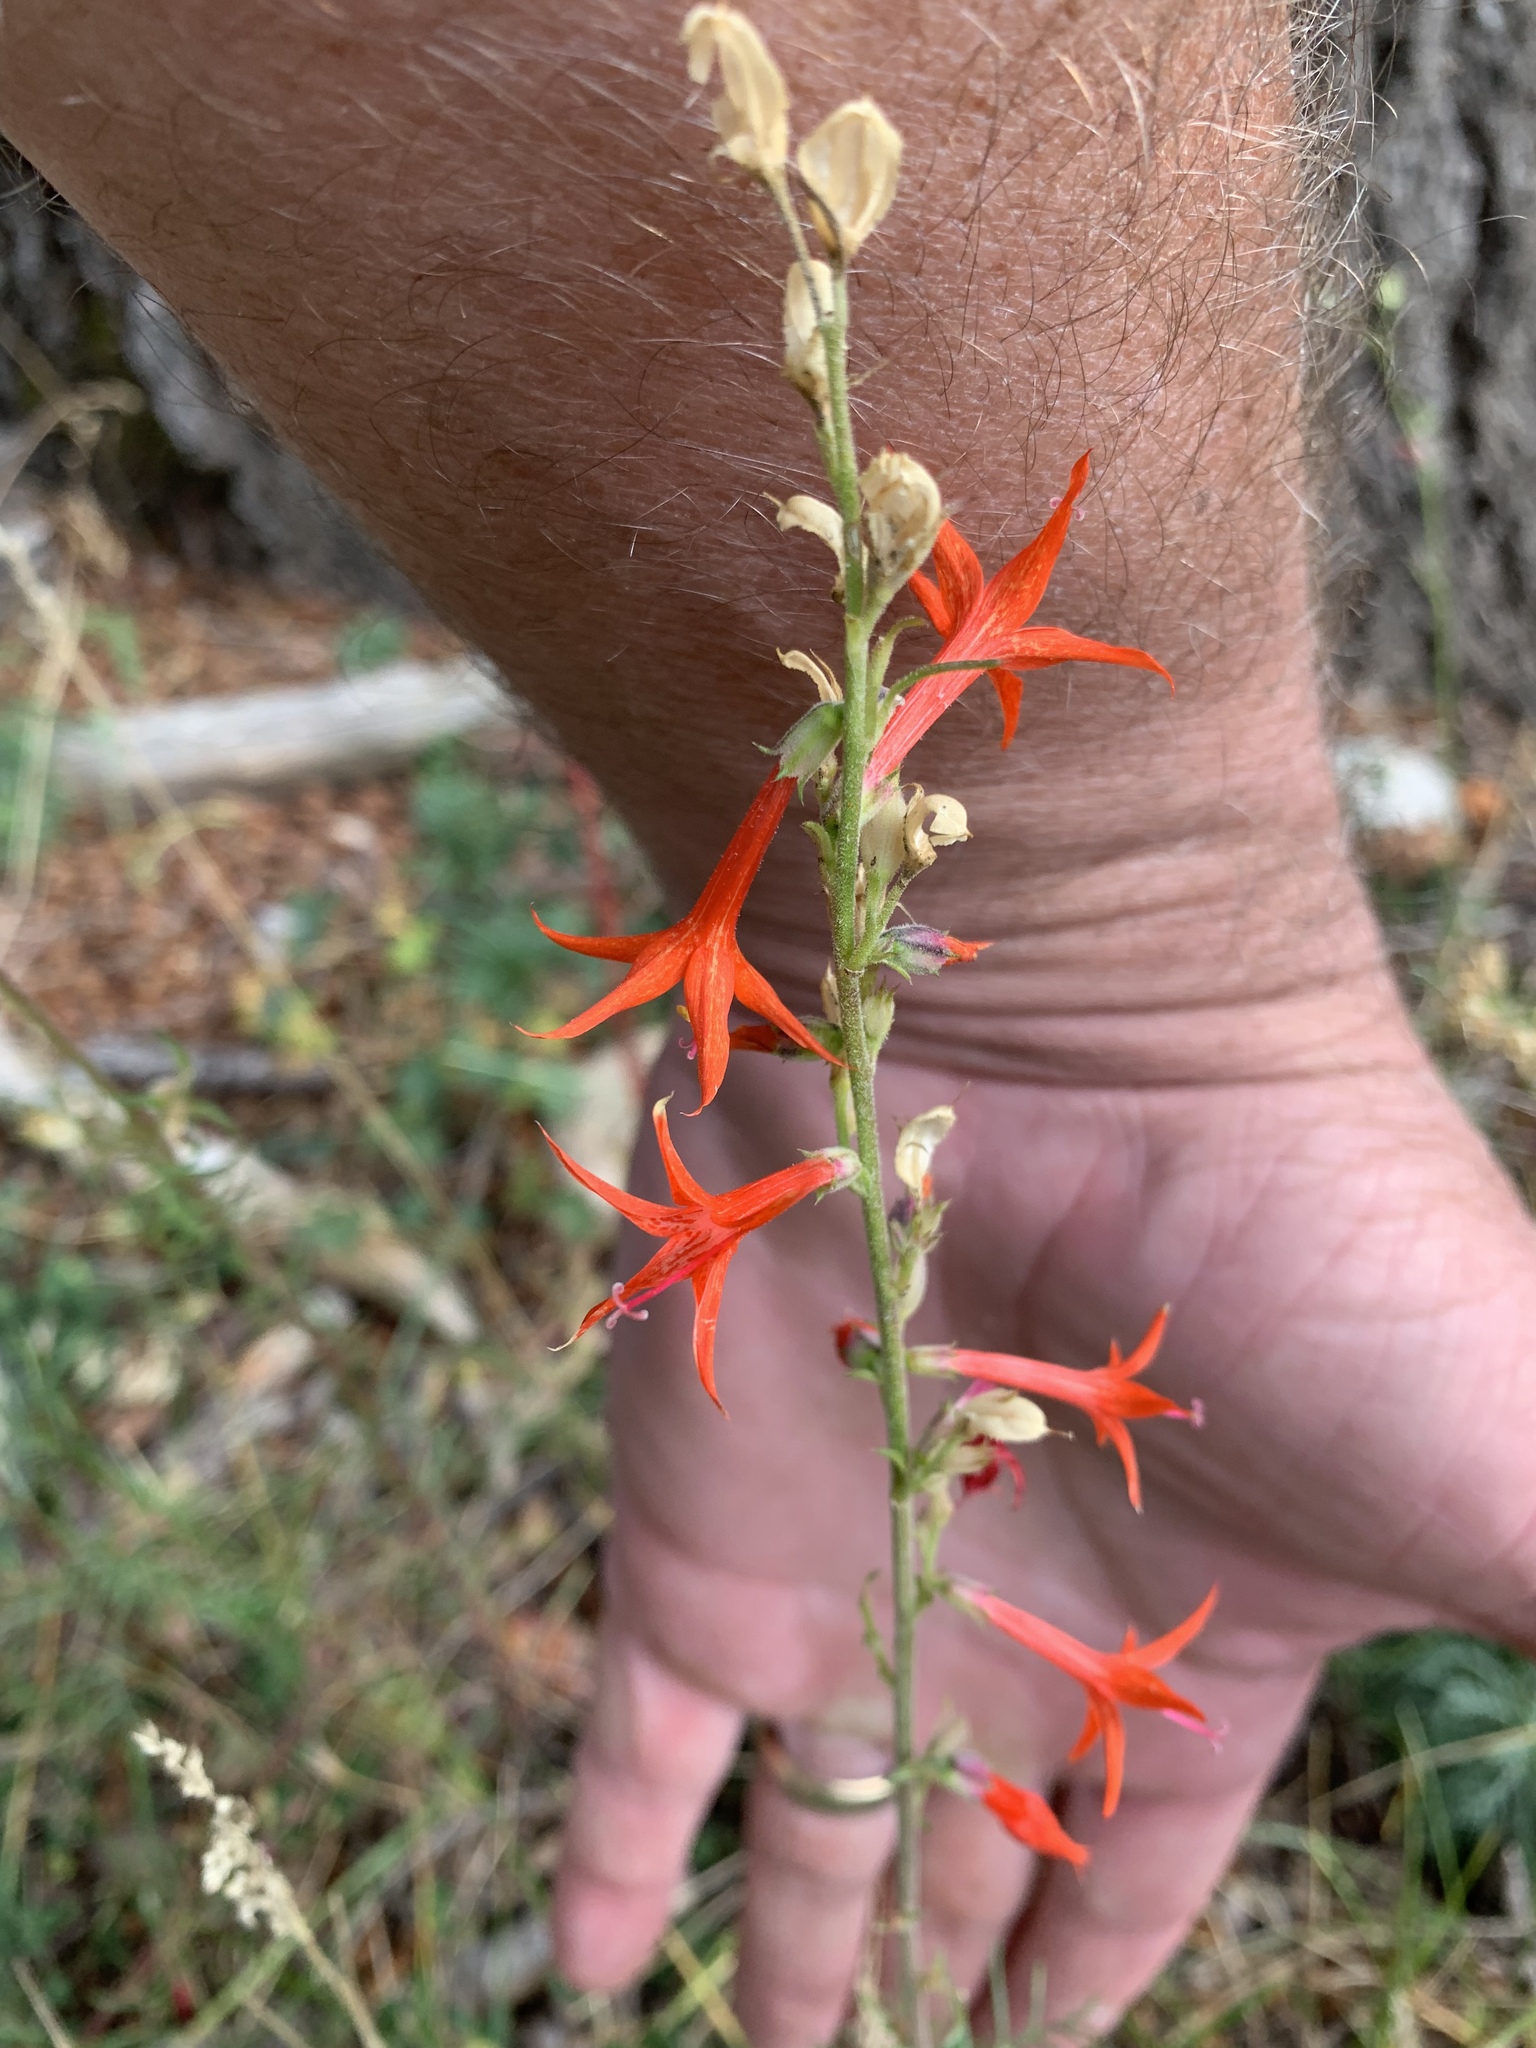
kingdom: Plantae
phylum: Tracheophyta
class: Magnoliopsida
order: Ericales
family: Polemoniaceae
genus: Ipomopsis
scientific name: Ipomopsis aggregata
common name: Scarlet gilia
